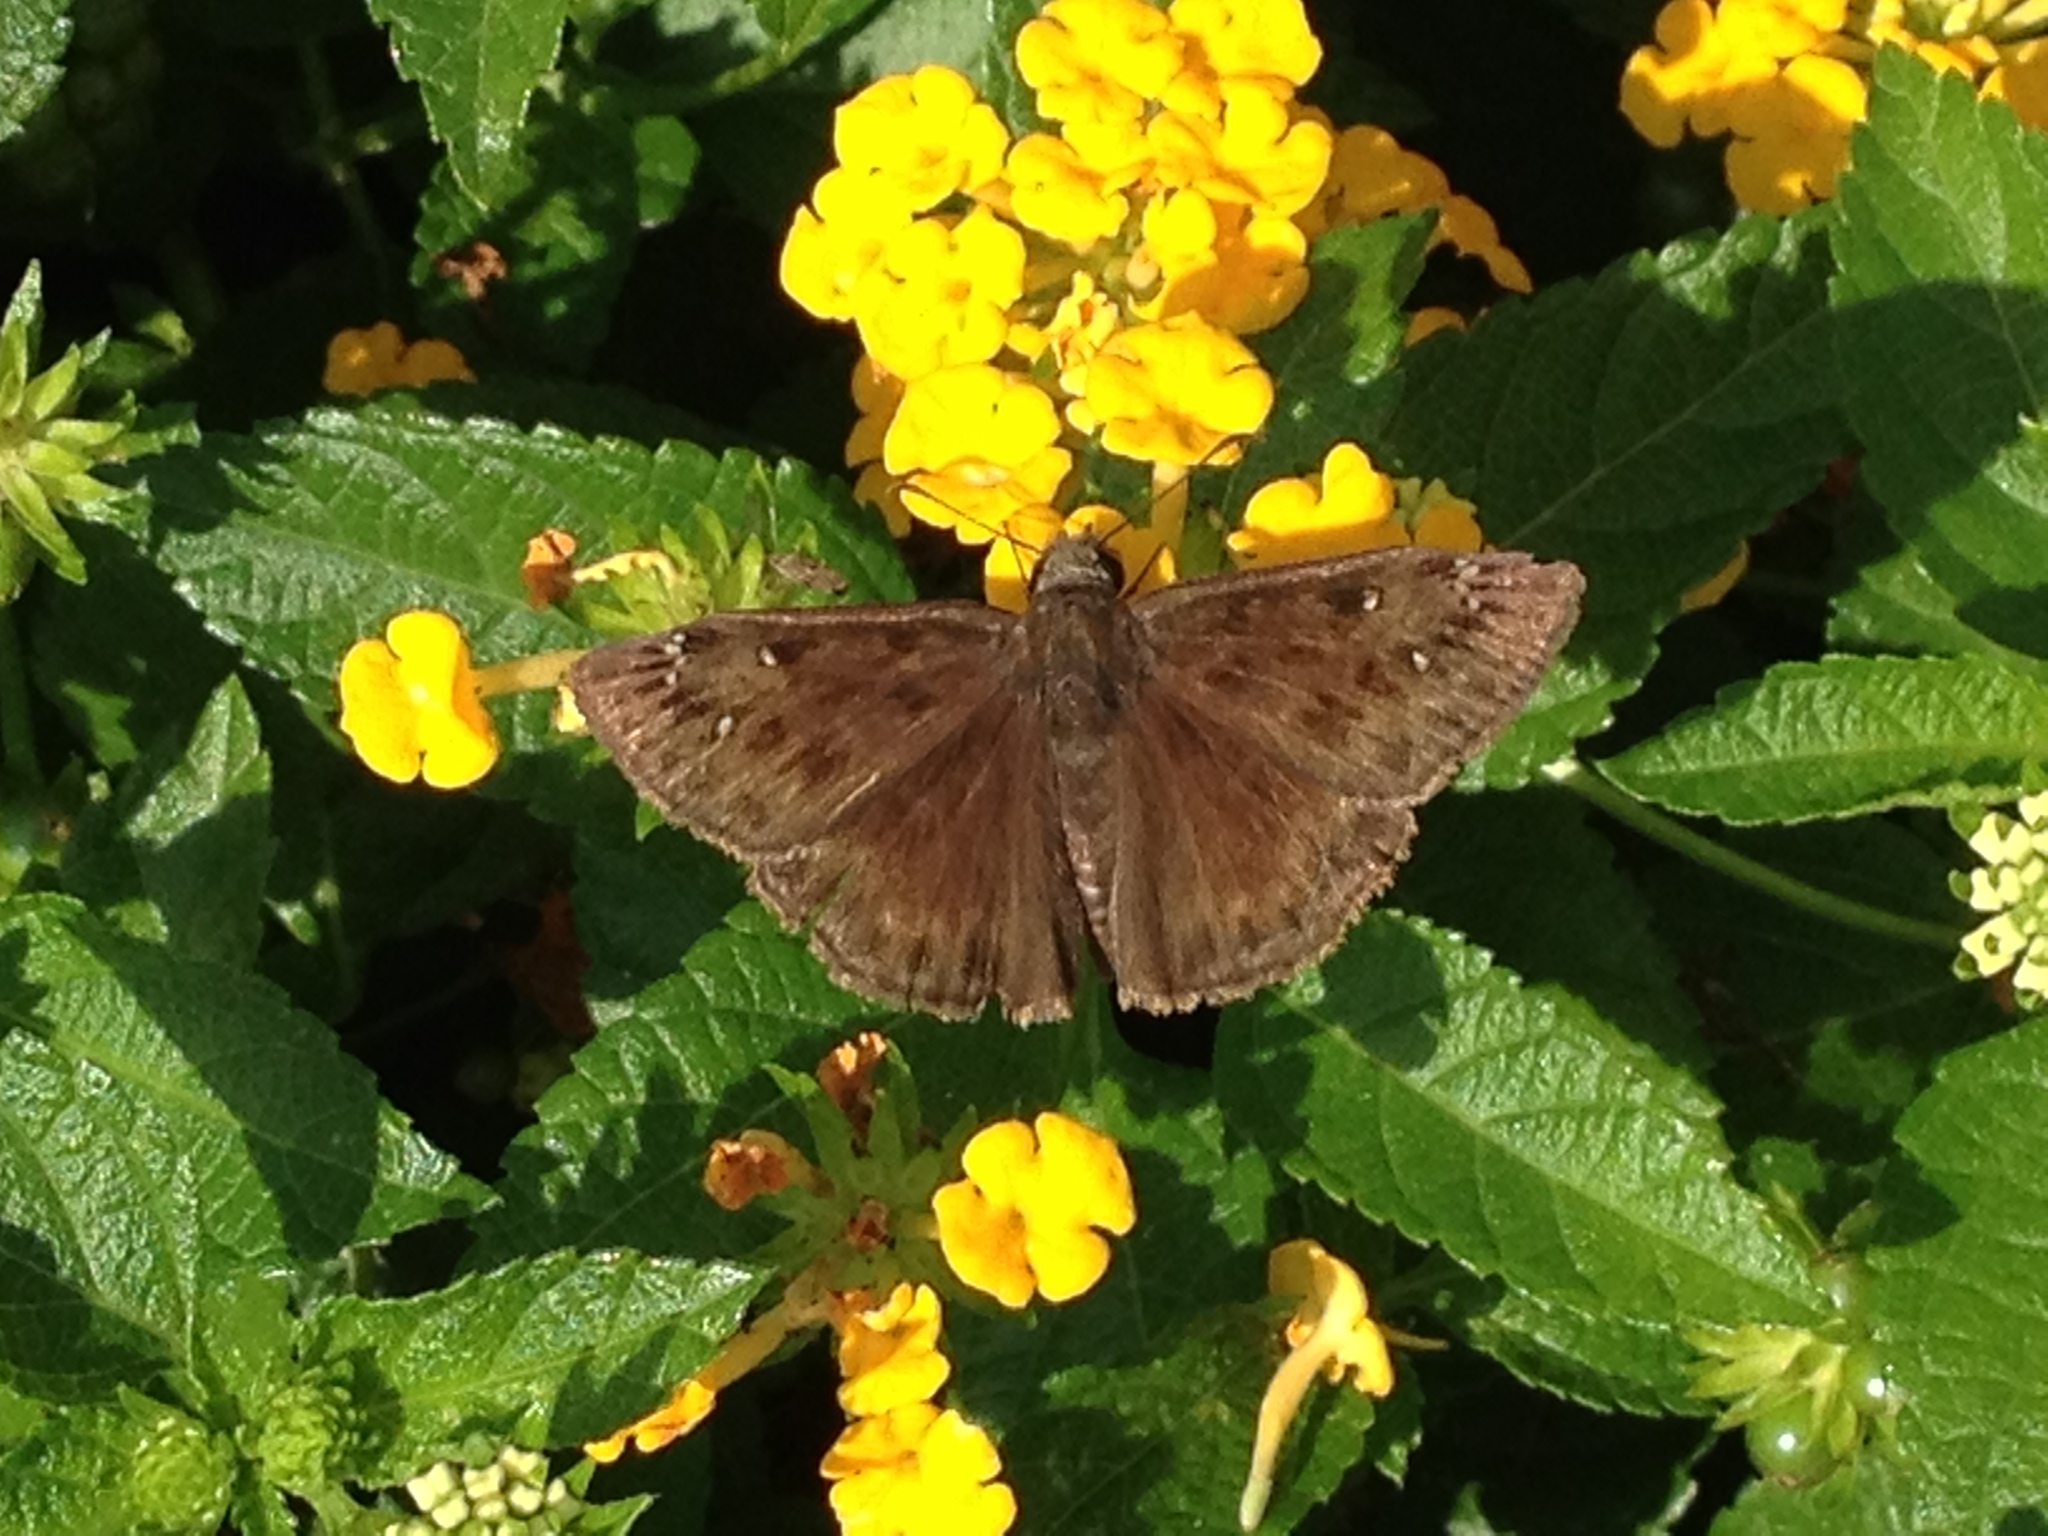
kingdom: Animalia
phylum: Arthropoda
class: Insecta
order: Lepidoptera
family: Hesperiidae
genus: Erynnis
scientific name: Erynnis horatius
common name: Horace's duskywing
